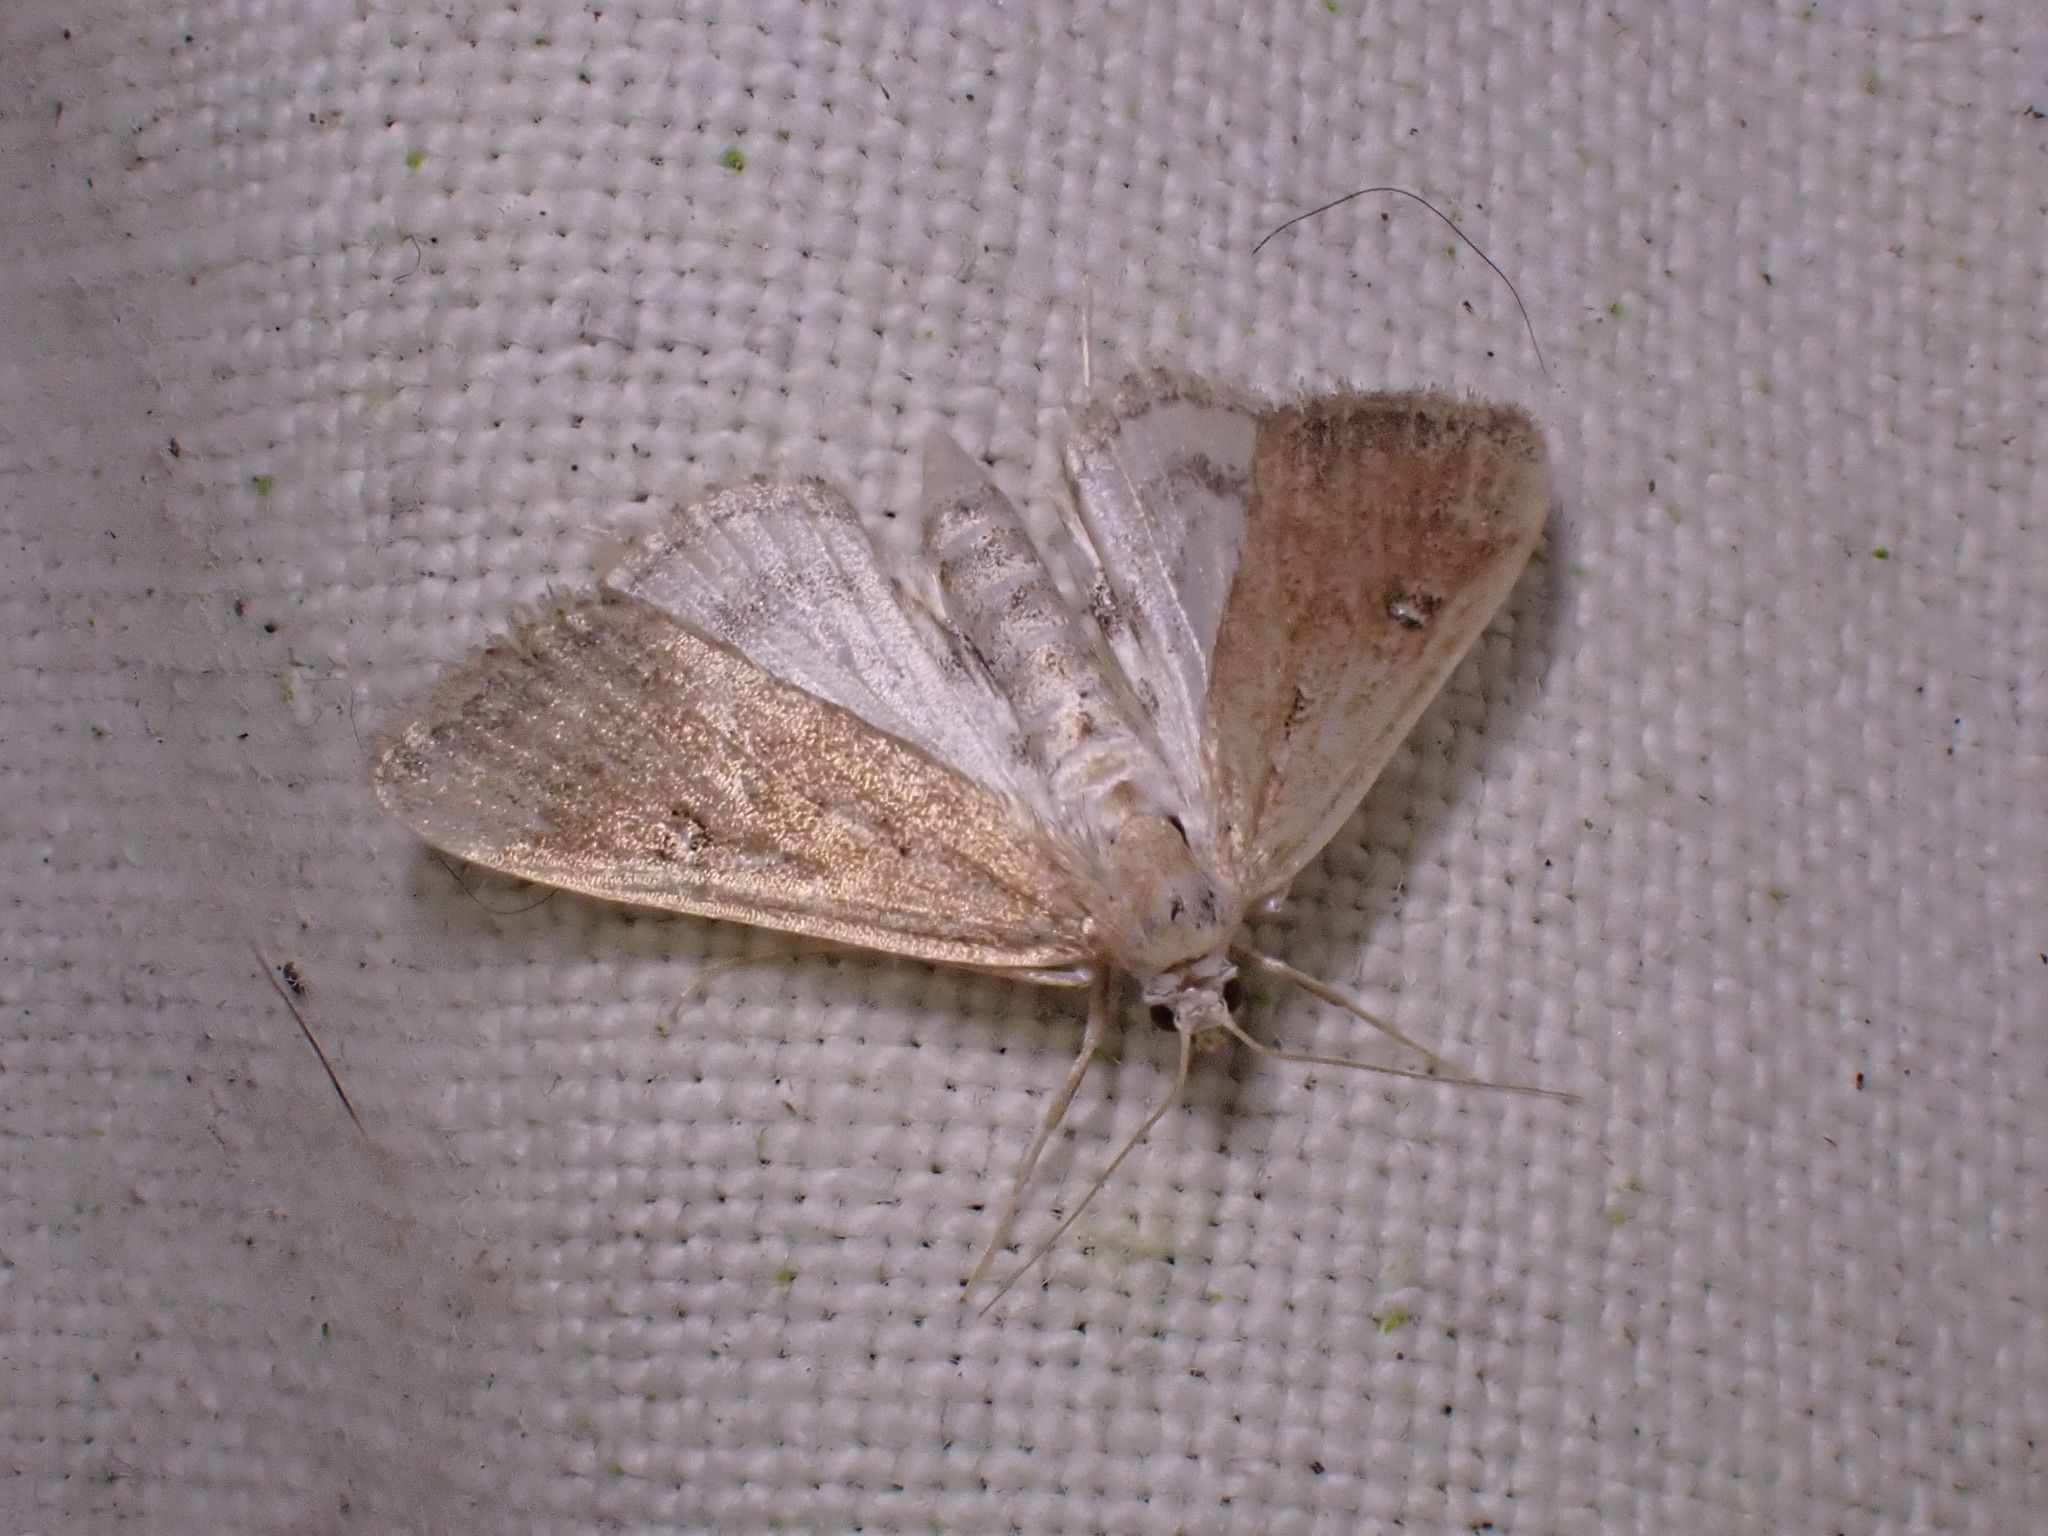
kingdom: Animalia
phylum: Arthropoda
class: Insecta
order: Lepidoptera
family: Crambidae
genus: Parapoynx
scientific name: Parapoynx stratiotata
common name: Ringed china-mark
